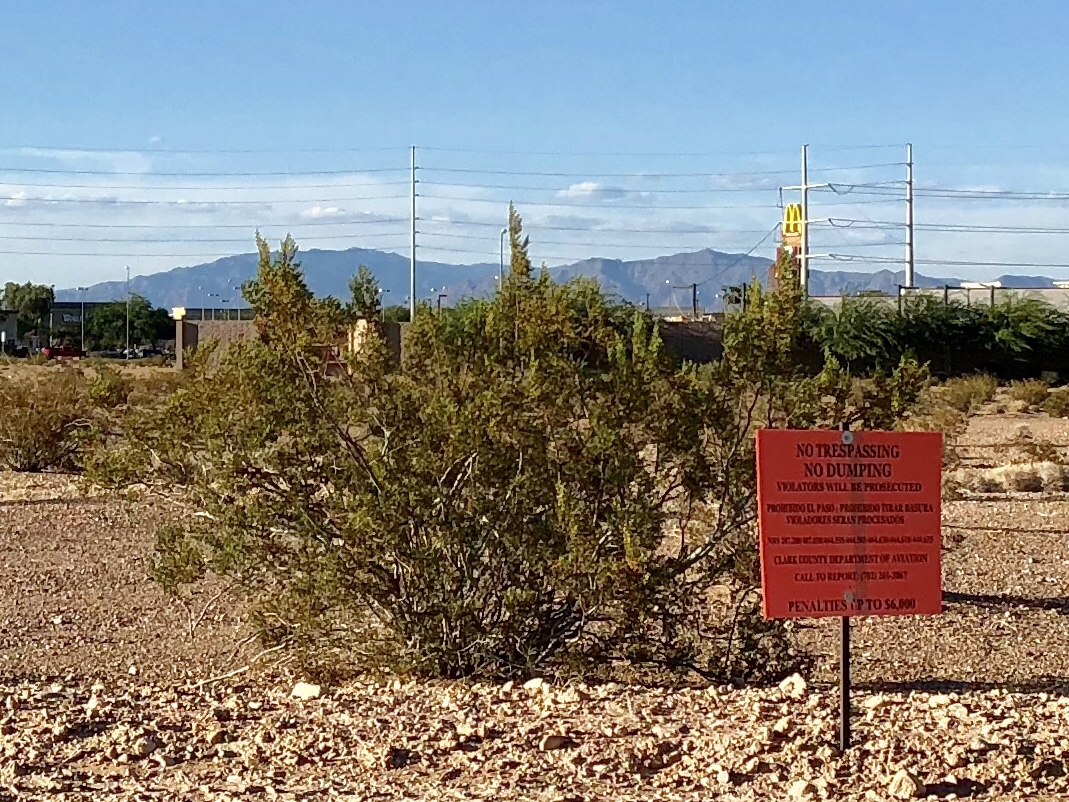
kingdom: Plantae
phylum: Tracheophyta
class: Magnoliopsida
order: Zygophyllales
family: Zygophyllaceae
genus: Larrea
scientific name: Larrea tridentata
